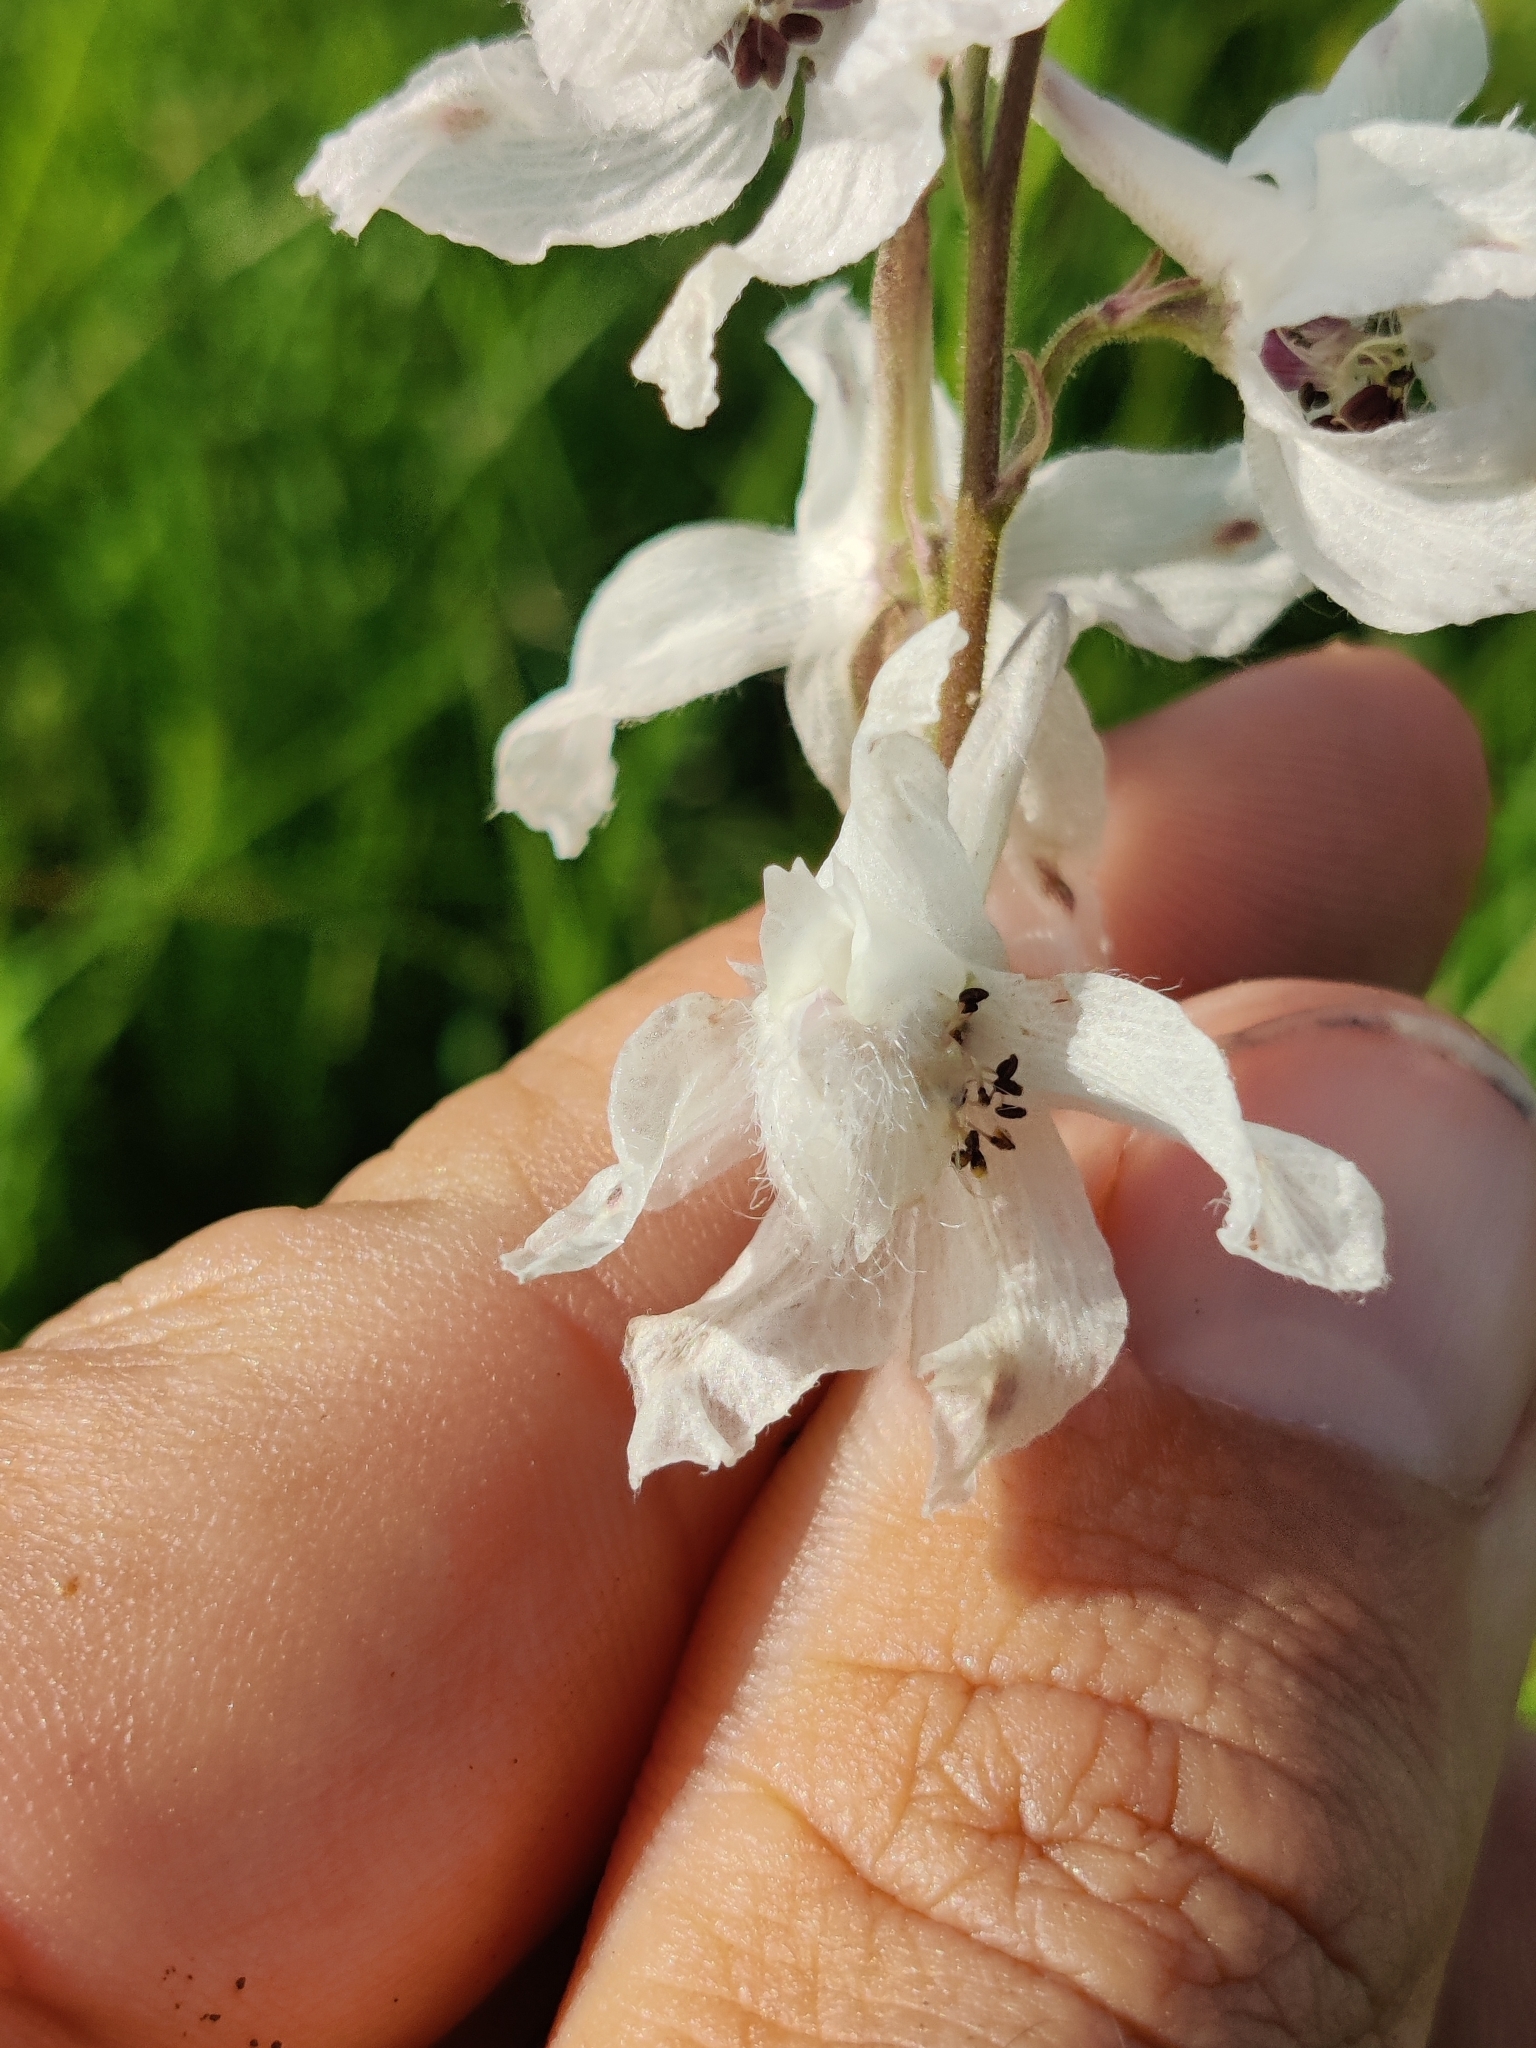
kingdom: Plantae
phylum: Tracheophyta
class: Magnoliopsida
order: Ranunculales
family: Ranunculaceae
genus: Delphinium
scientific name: Delphinium carolinianum
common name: Carolina larkspur
